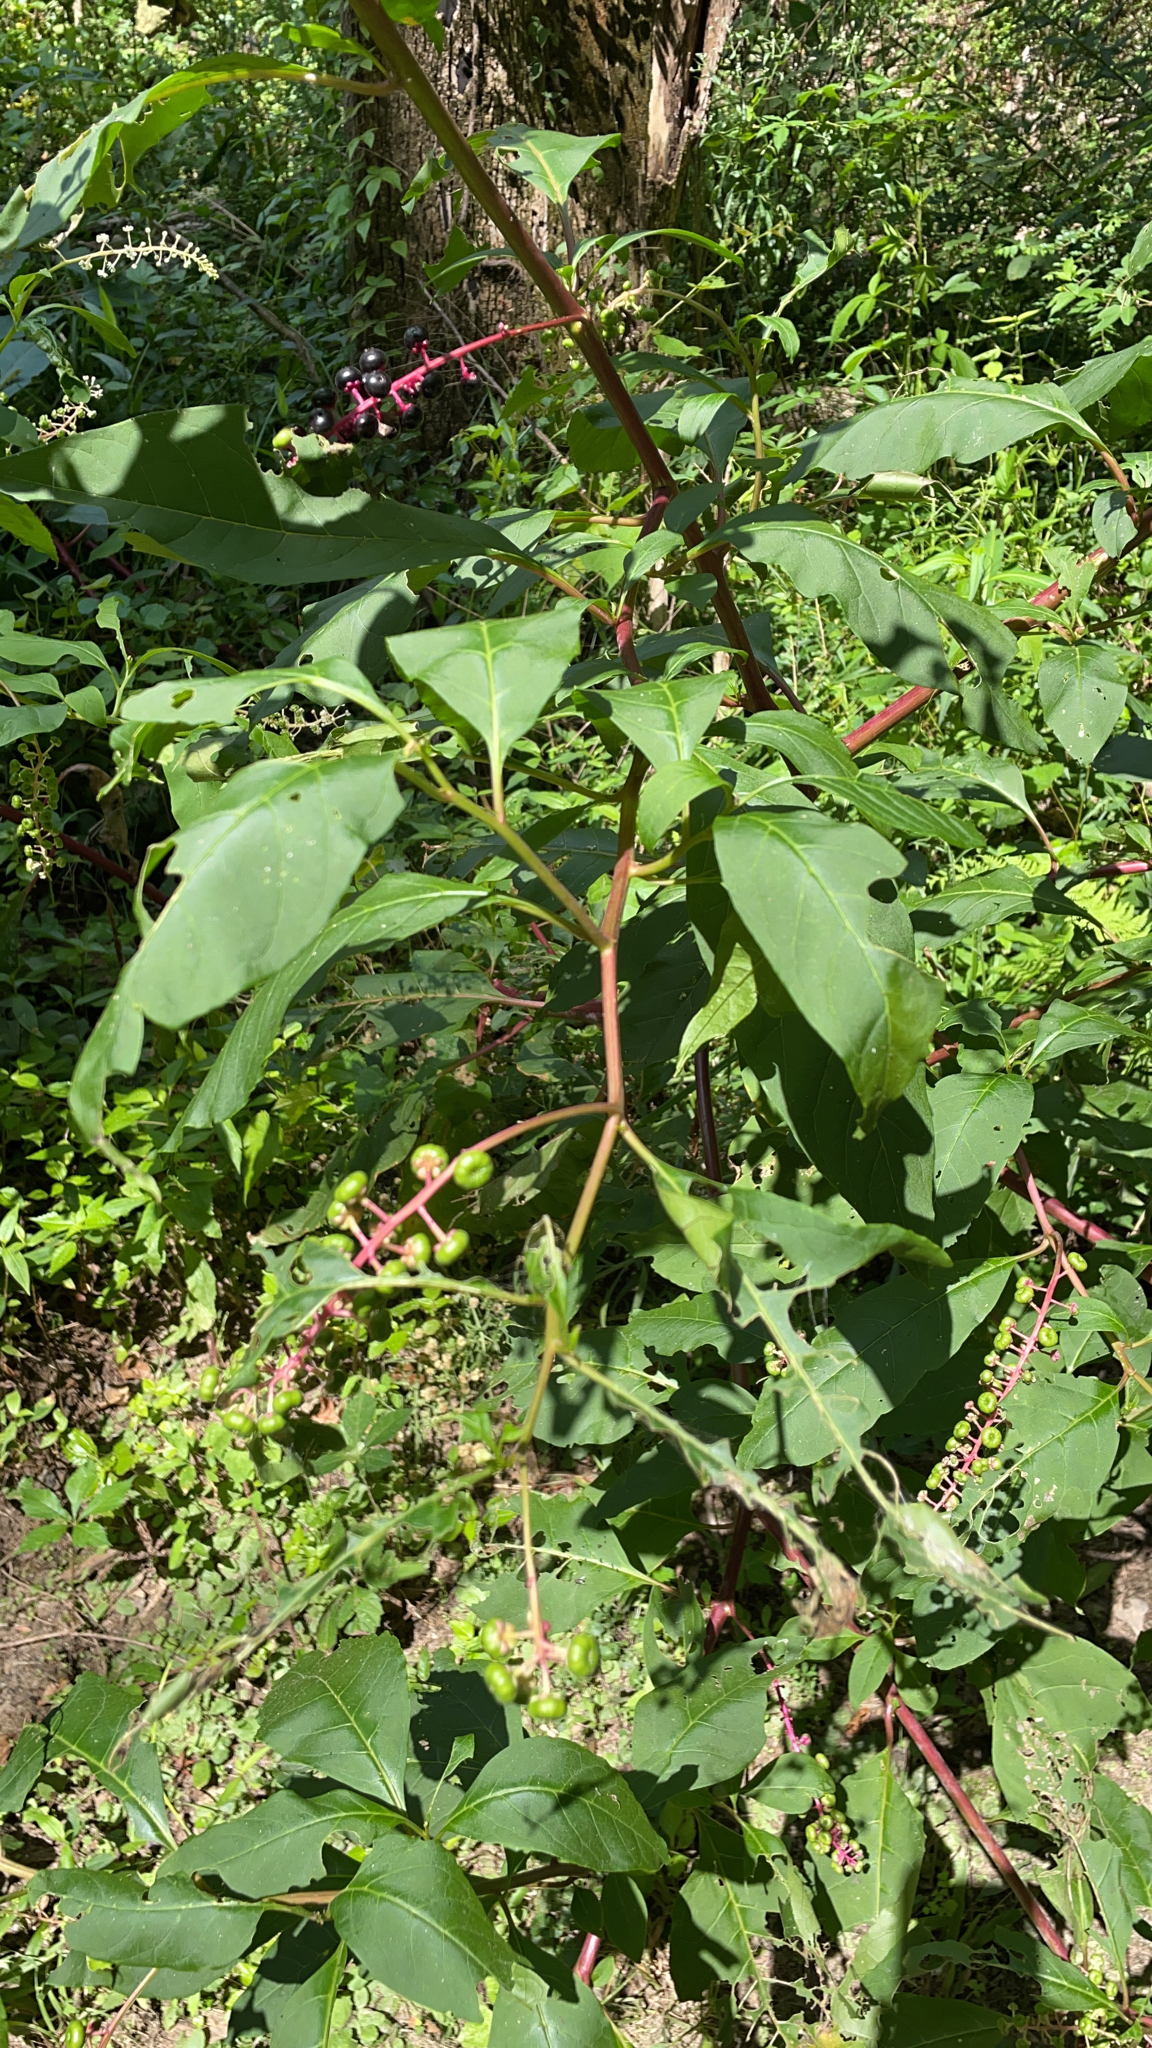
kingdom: Plantae
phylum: Tracheophyta
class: Magnoliopsida
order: Caryophyllales
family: Phytolaccaceae
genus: Phytolacca
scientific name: Phytolacca americana
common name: American pokeweed
